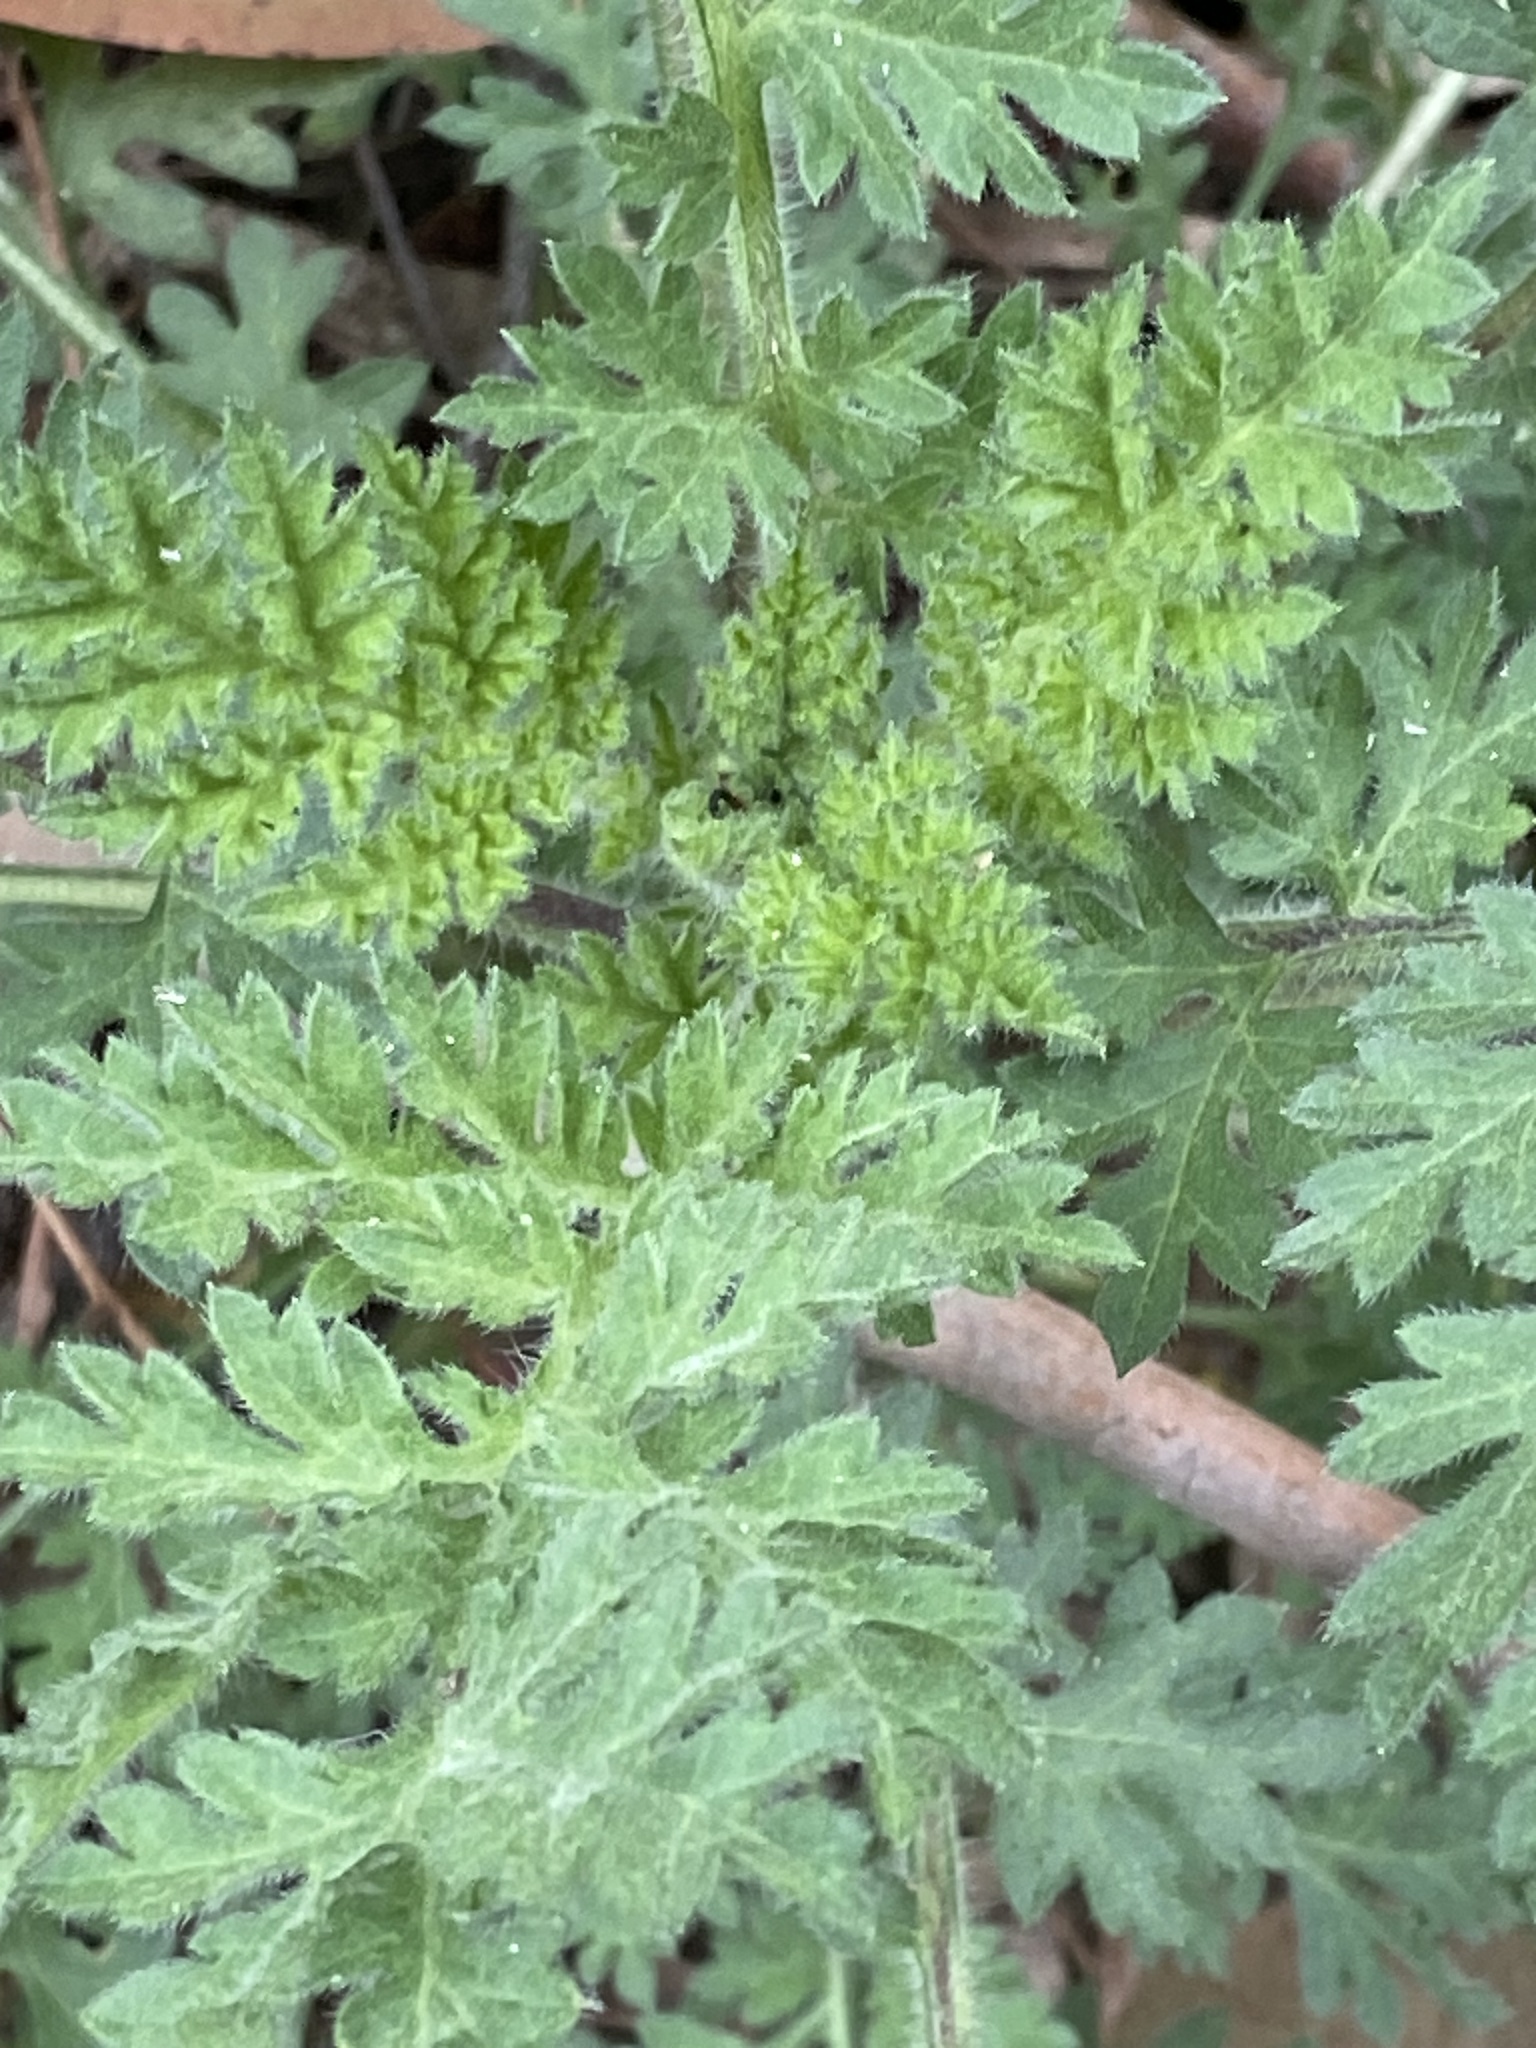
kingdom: Plantae
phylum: Tracheophyta
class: Magnoliopsida
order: Caryophyllales
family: Amaranthaceae
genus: Blitum
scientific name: Blitum californicum
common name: California goosefoot
